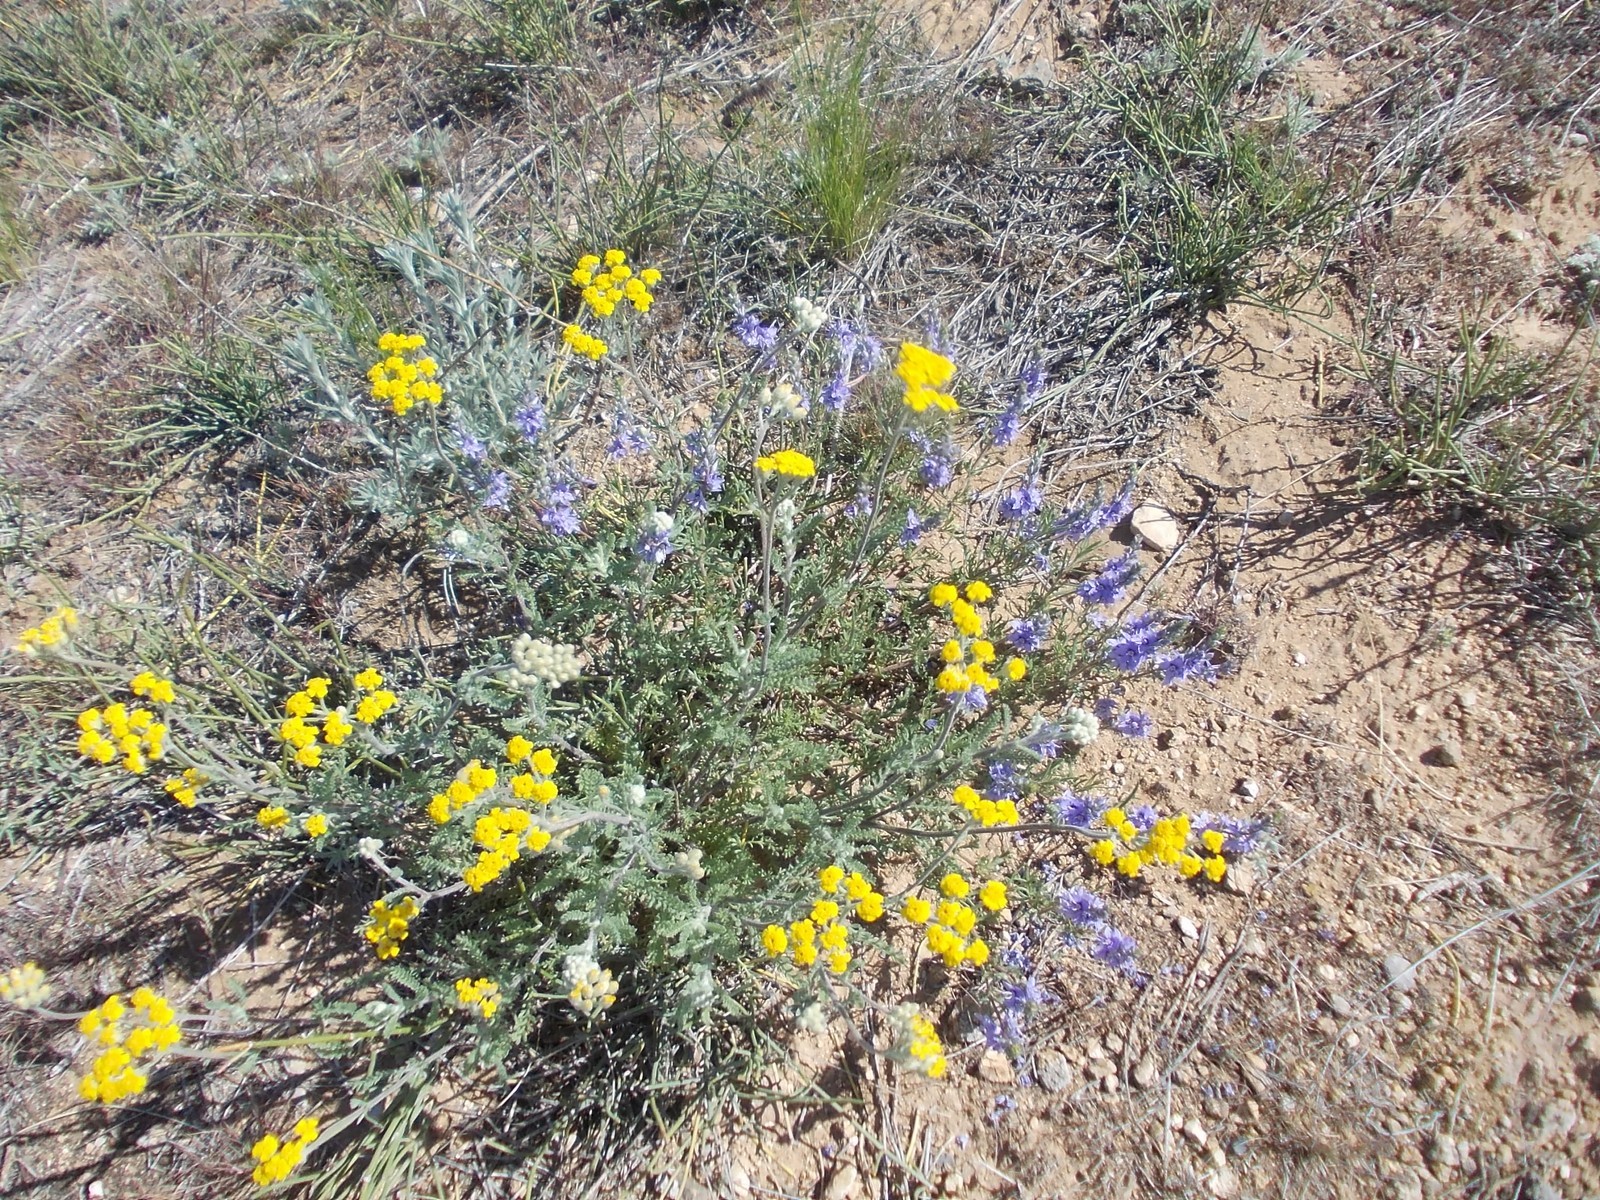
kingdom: Plantae
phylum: Tracheophyta
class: Magnoliopsida
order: Asterales
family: Asteraceae
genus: Achillea
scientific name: Achillea leptophylla
